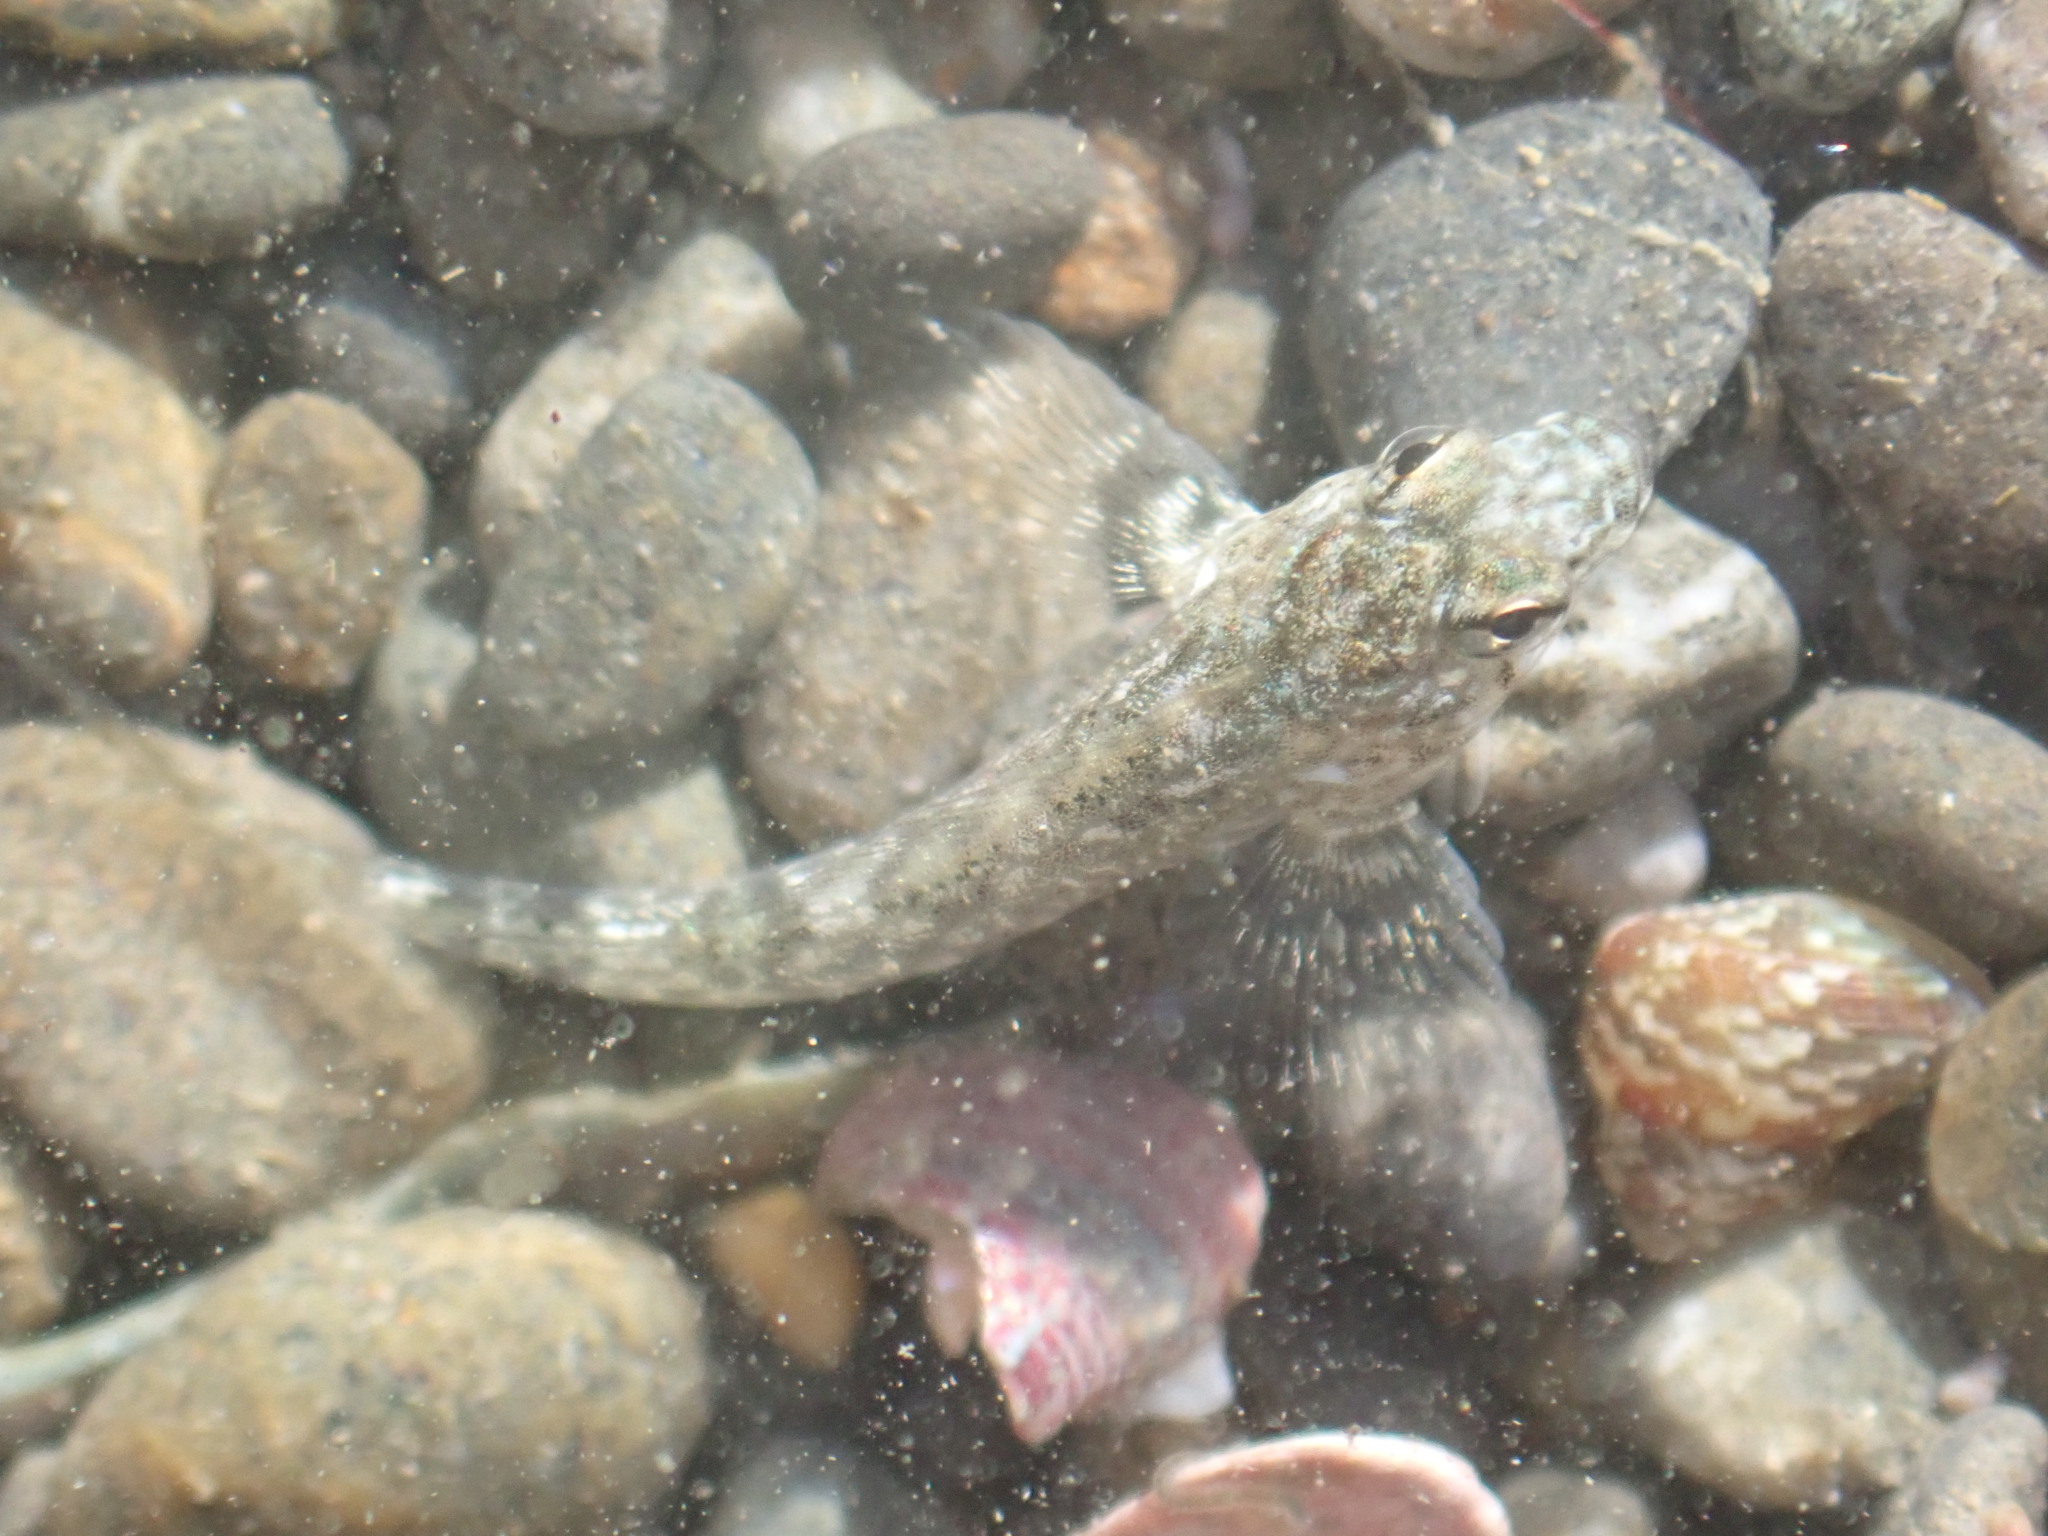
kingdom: Animalia
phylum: Chordata
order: Perciformes
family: Tripterygiidae
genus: Bellapiscis
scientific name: Bellapiscis medius
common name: Twister
